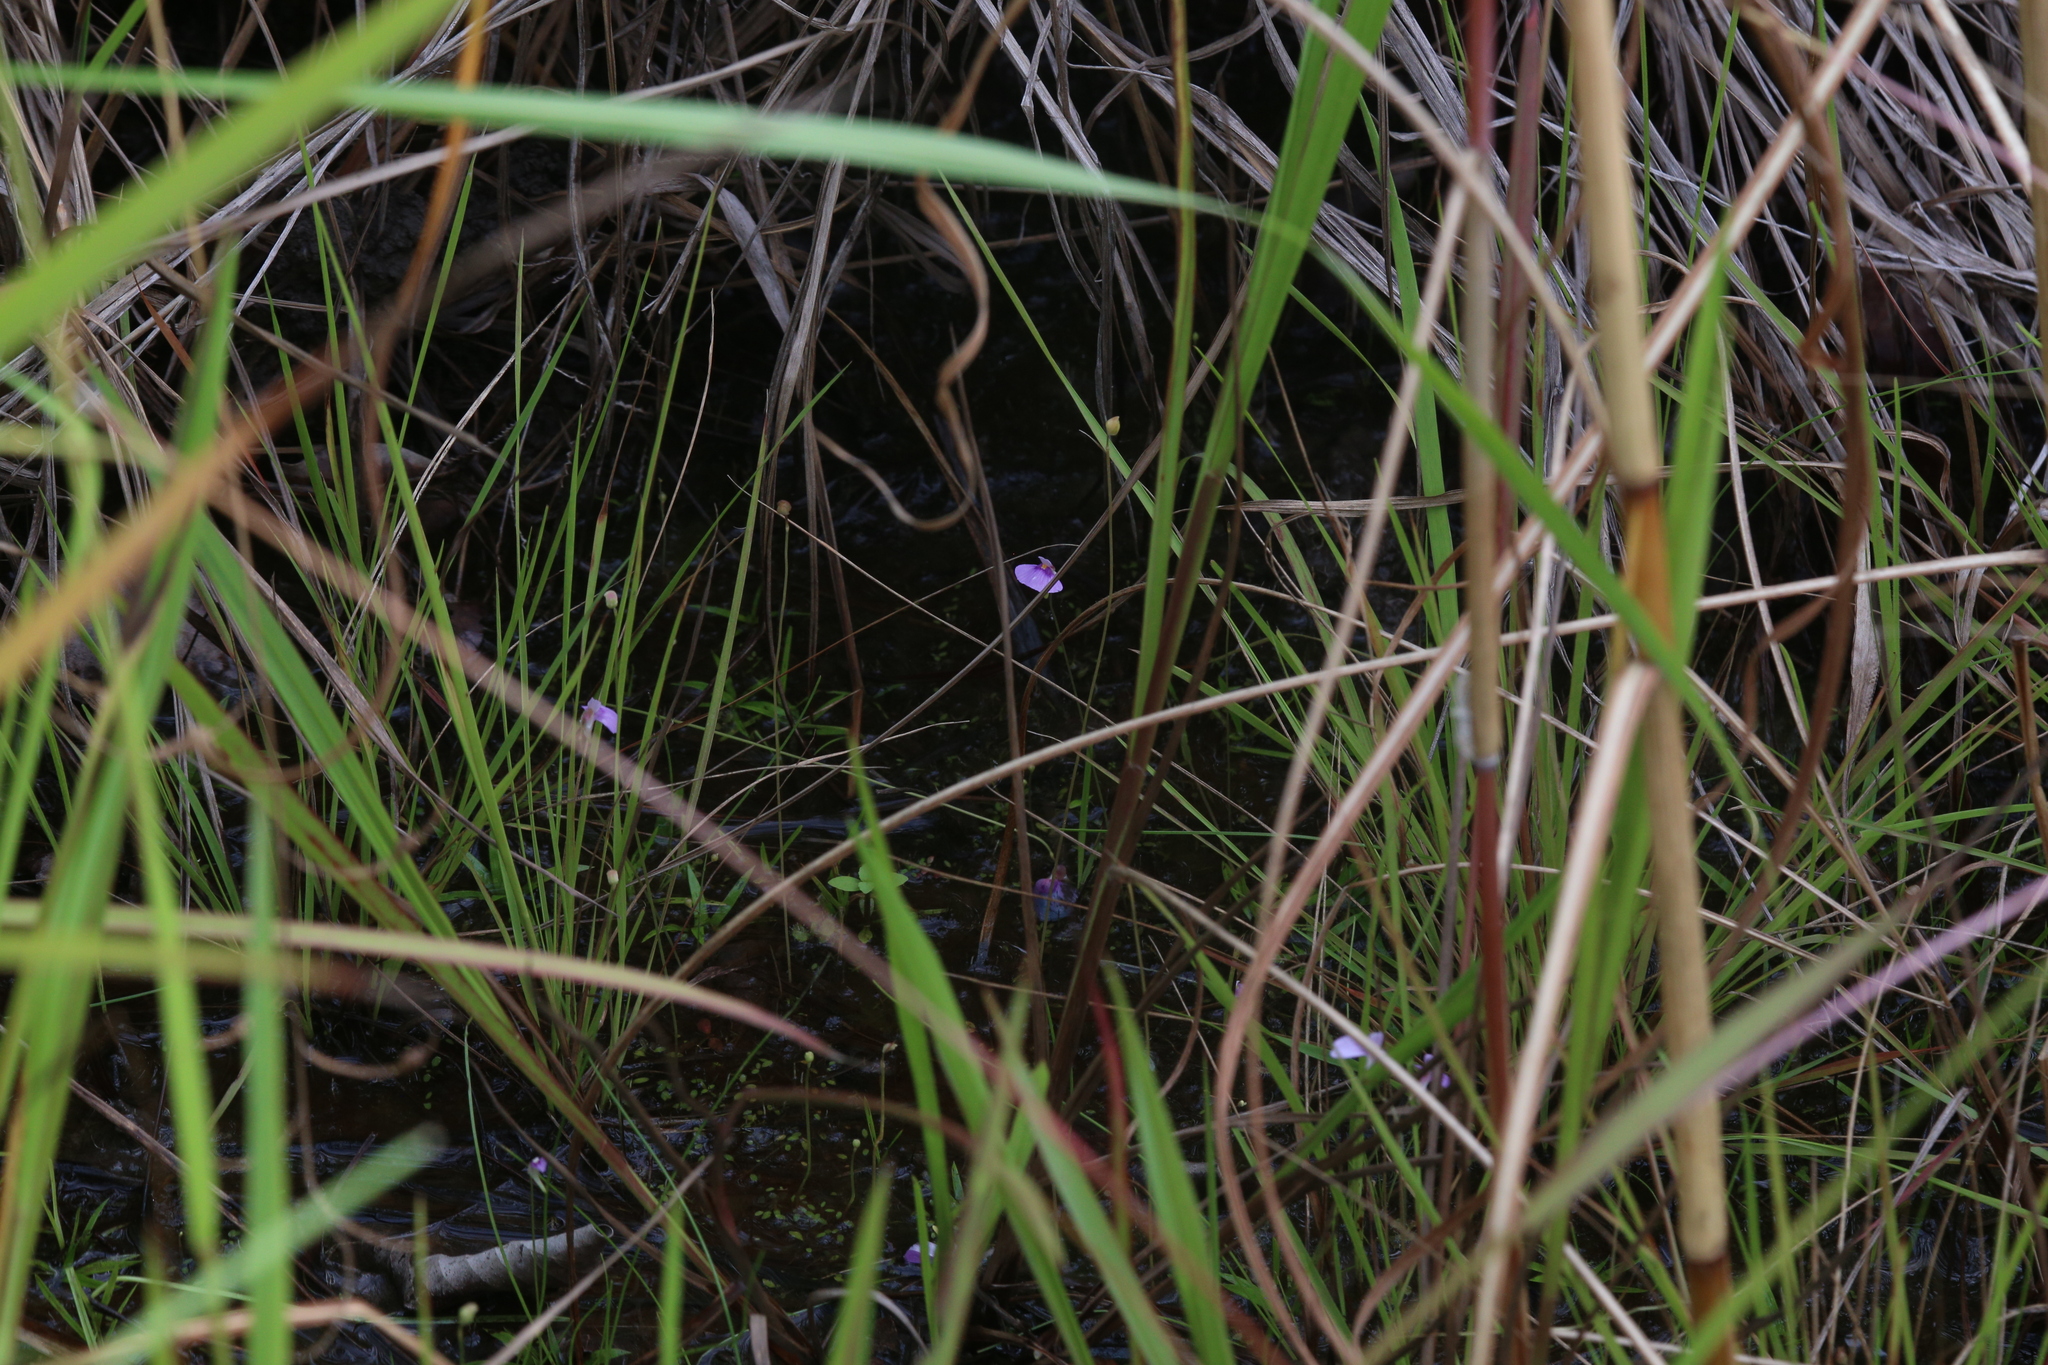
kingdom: Plantae
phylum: Tracheophyta
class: Magnoliopsida
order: Lamiales
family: Lentibulariaceae
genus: Utricularia
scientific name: Utricularia gaagudju
